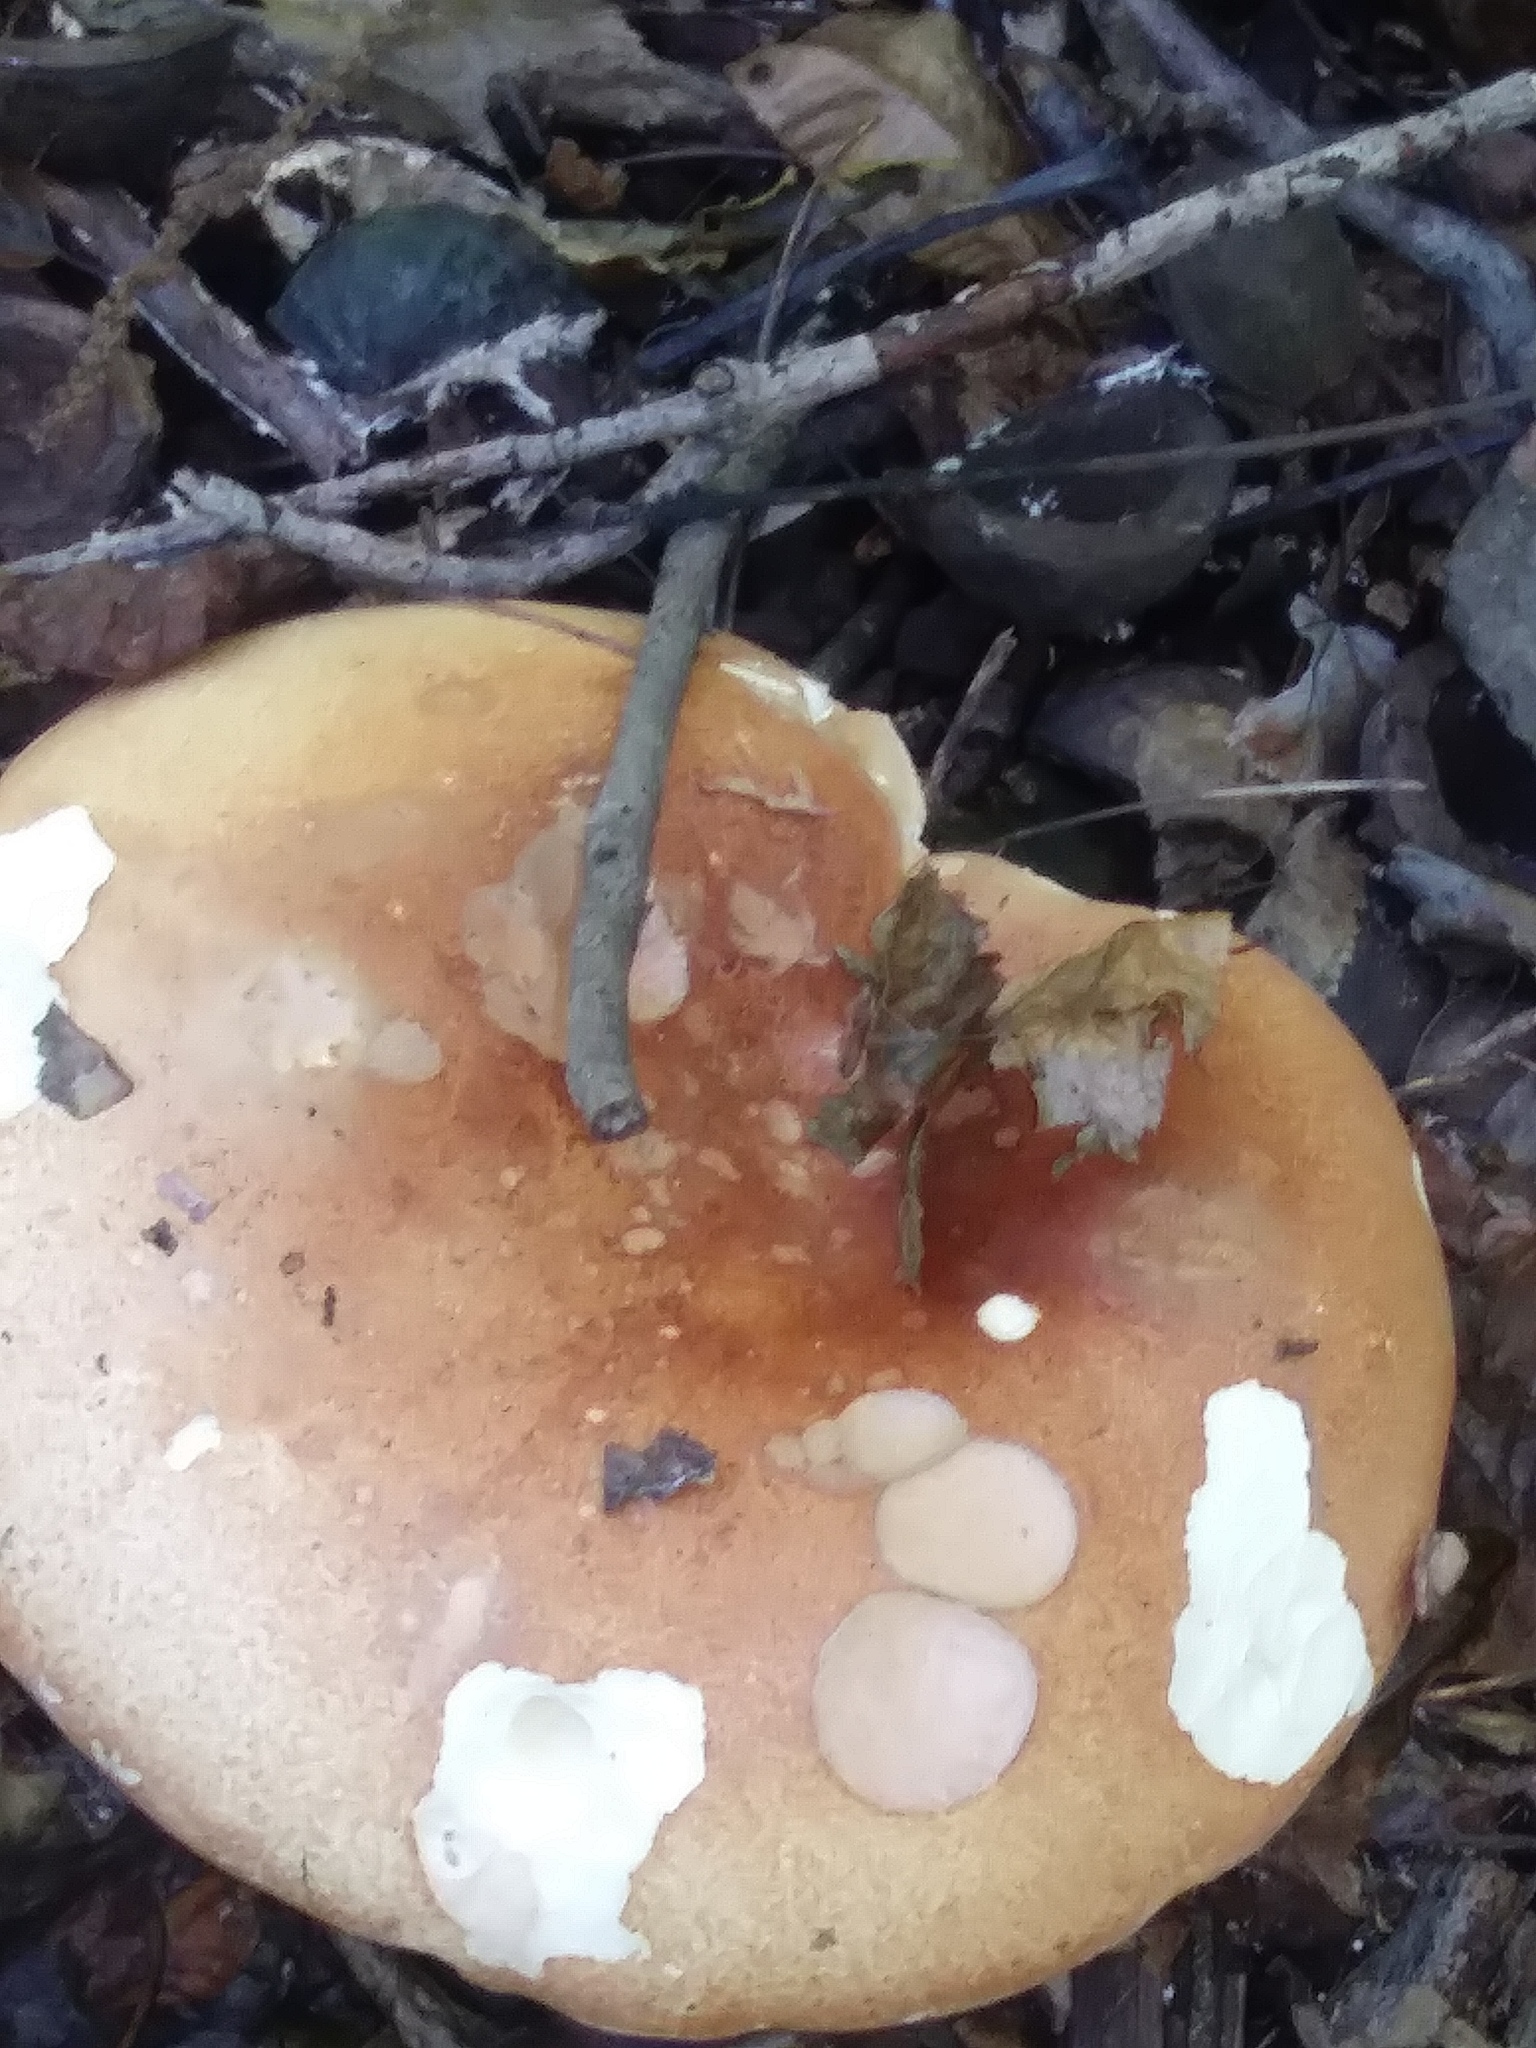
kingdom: Fungi
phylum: Basidiomycota
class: Agaricomycetes
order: Russulales
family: Russulaceae
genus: Russula
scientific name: Russula compacta
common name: Fishbiscuit russula
